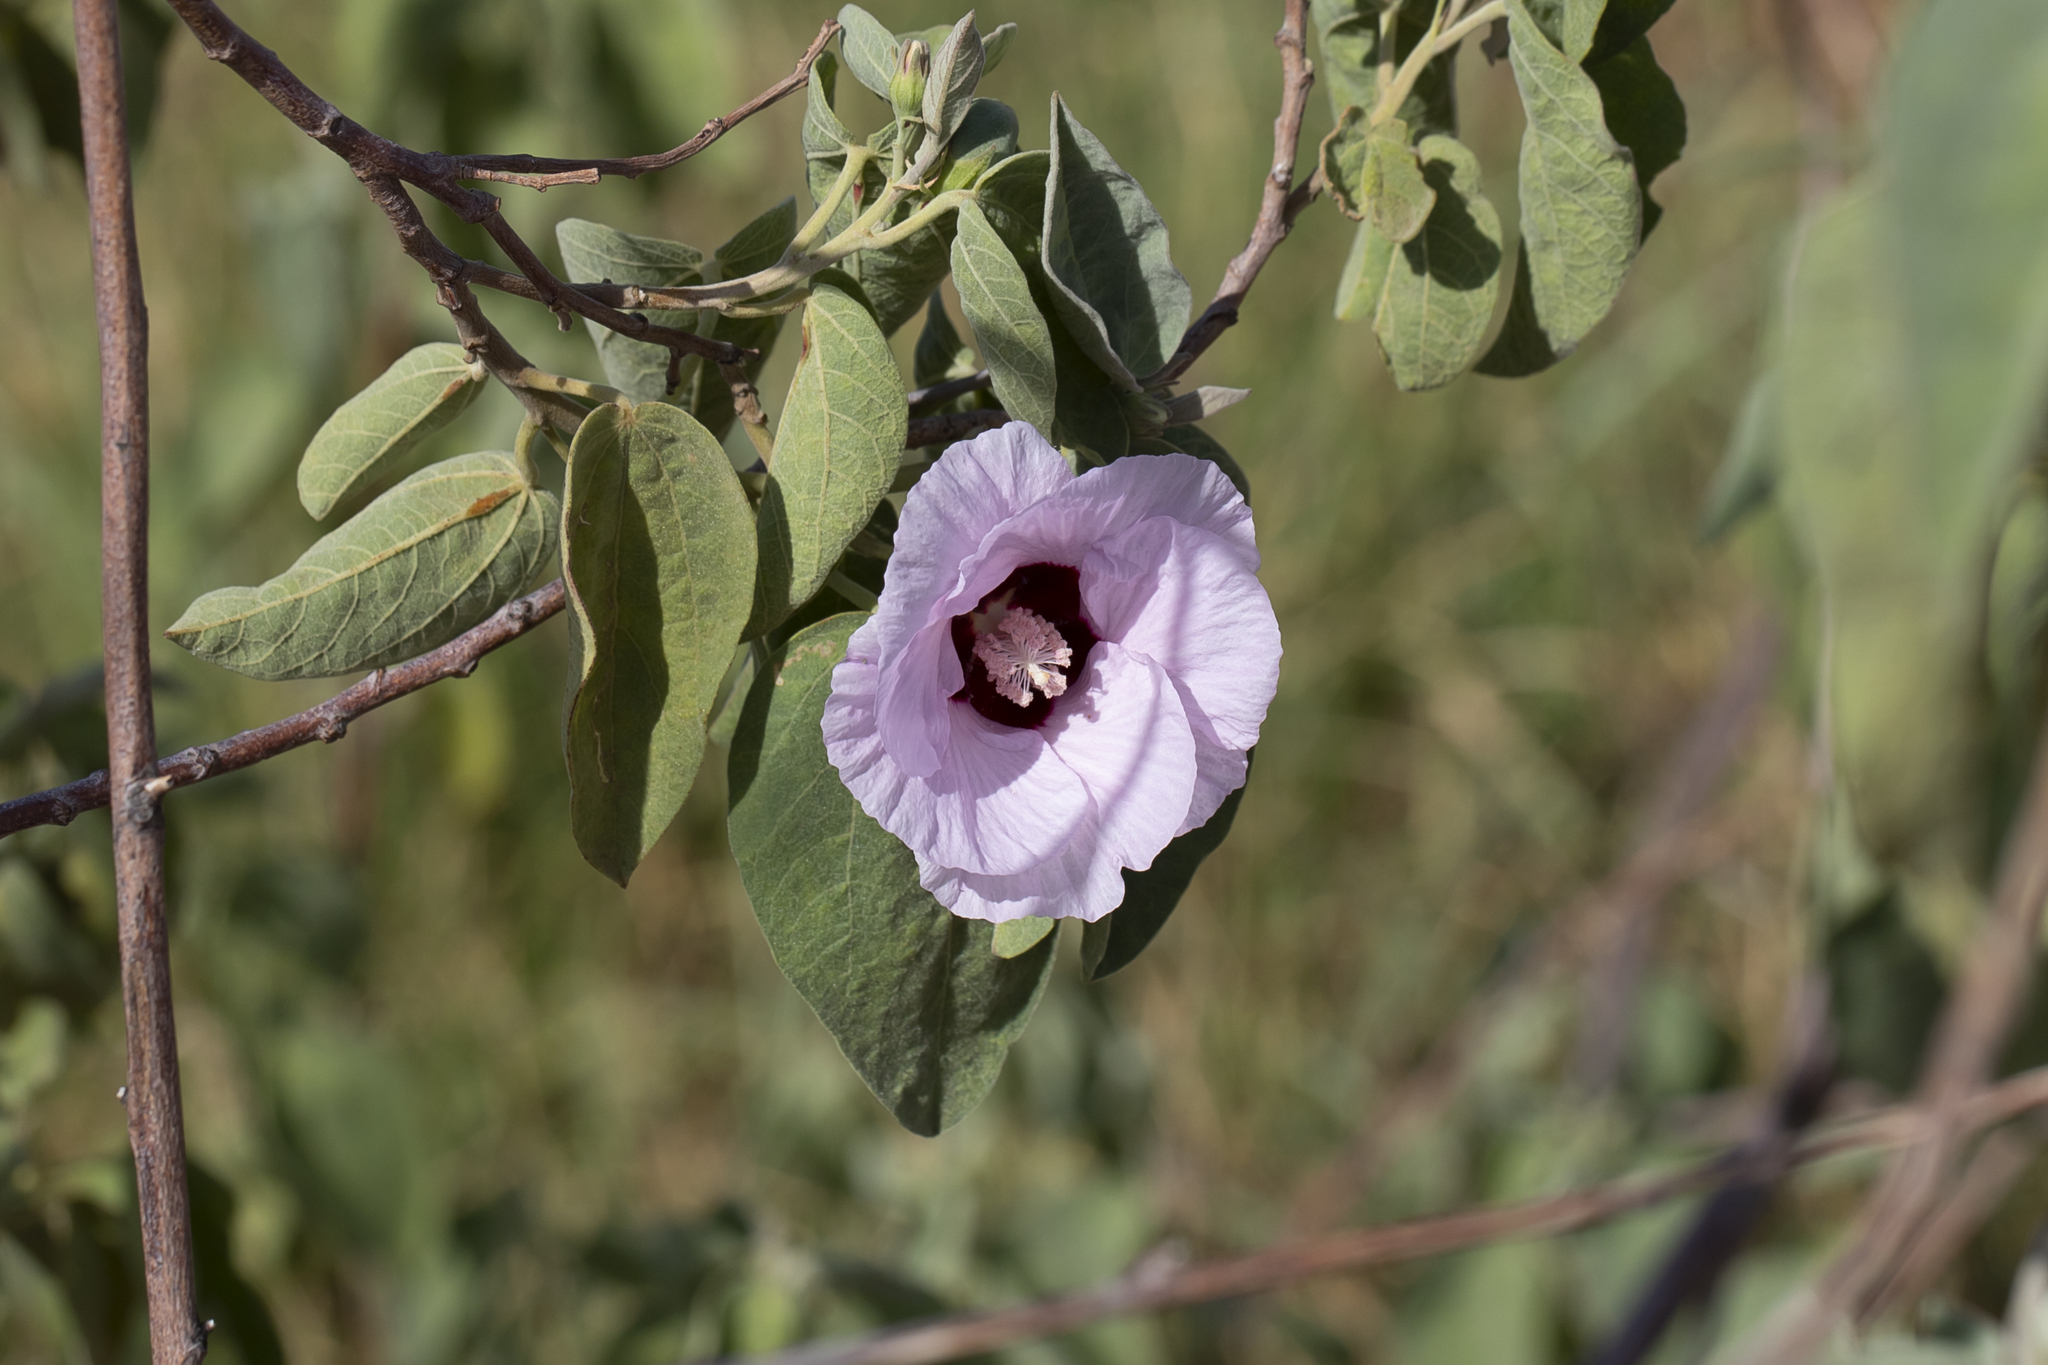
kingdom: Plantae
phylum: Tracheophyta
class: Magnoliopsida
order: Malvales
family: Malvaceae
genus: Gossypium
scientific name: Gossypium sturtianum
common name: Sturt's desert-rose
